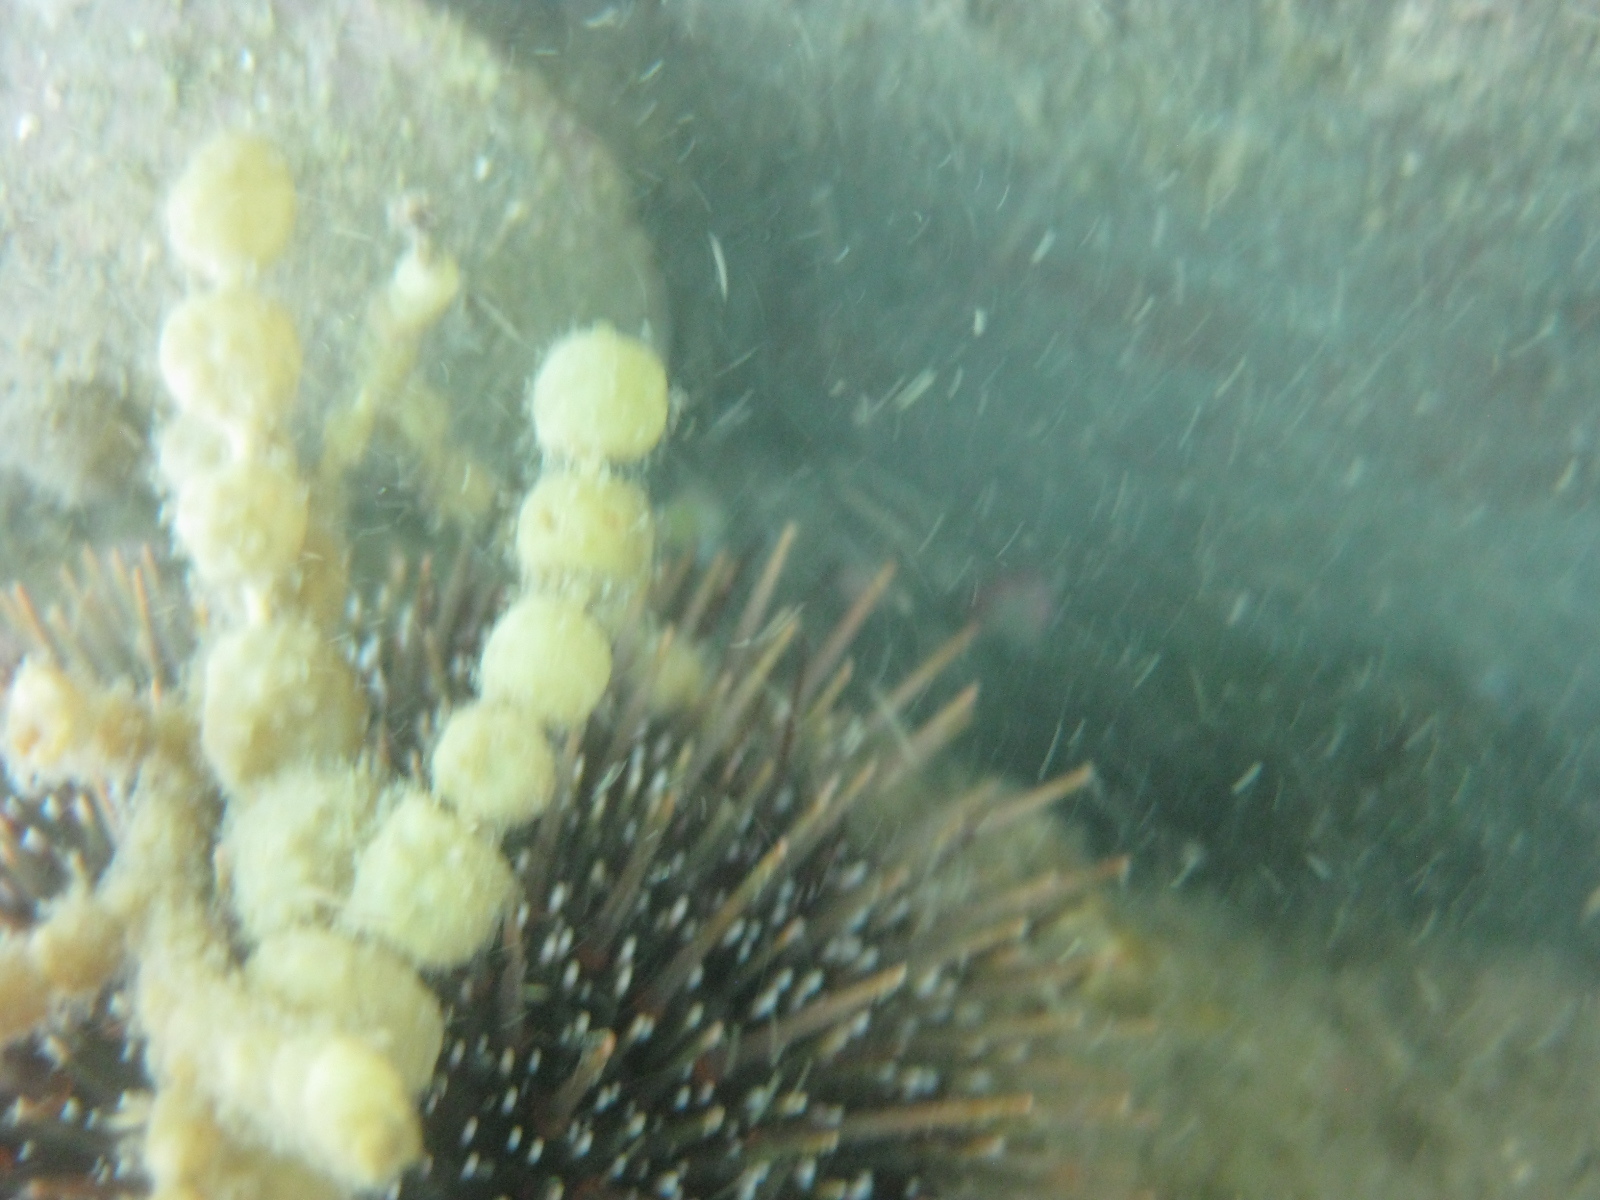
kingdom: Animalia
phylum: Echinodermata
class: Echinoidea
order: Camarodonta
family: Echinometridae
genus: Evechinus
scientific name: Evechinus chloroticus
